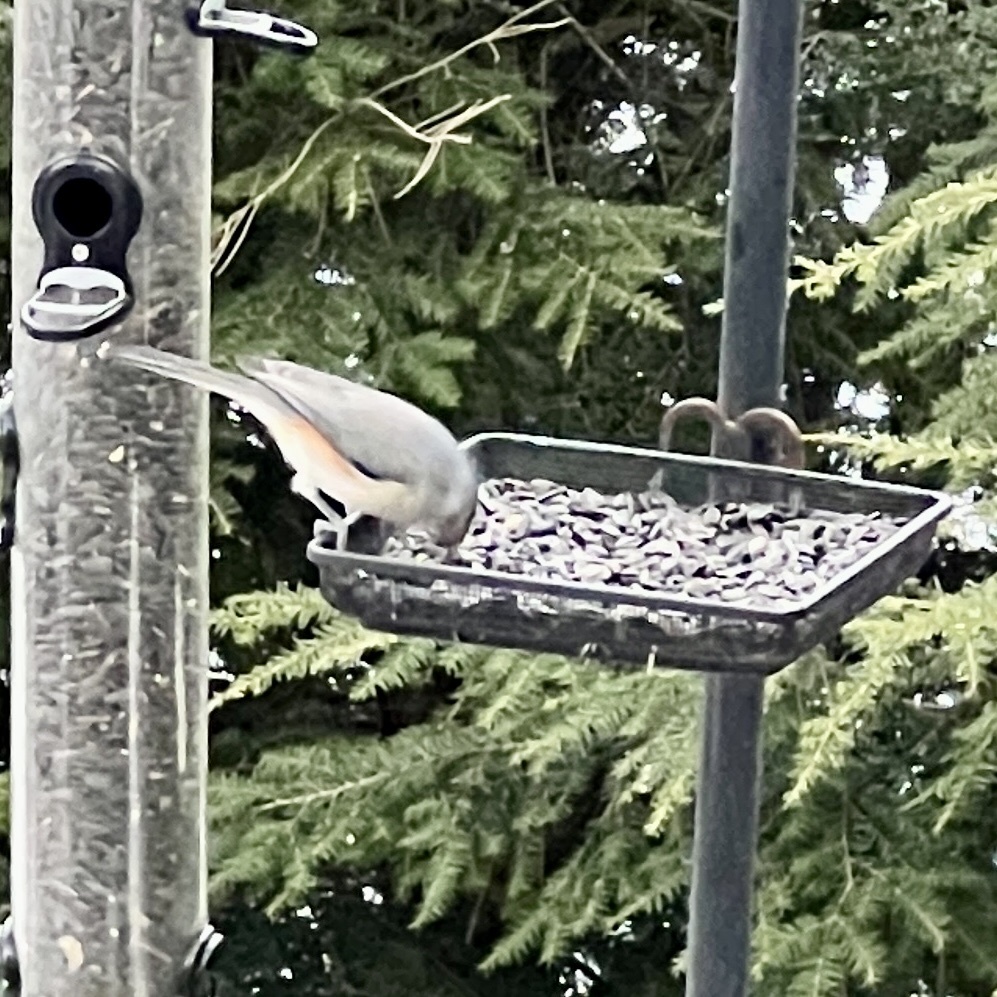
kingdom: Animalia
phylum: Chordata
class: Aves
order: Passeriformes
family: Paridae
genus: Baeolophus
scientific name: Baeolophus bicolor
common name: Tufted titmouse
